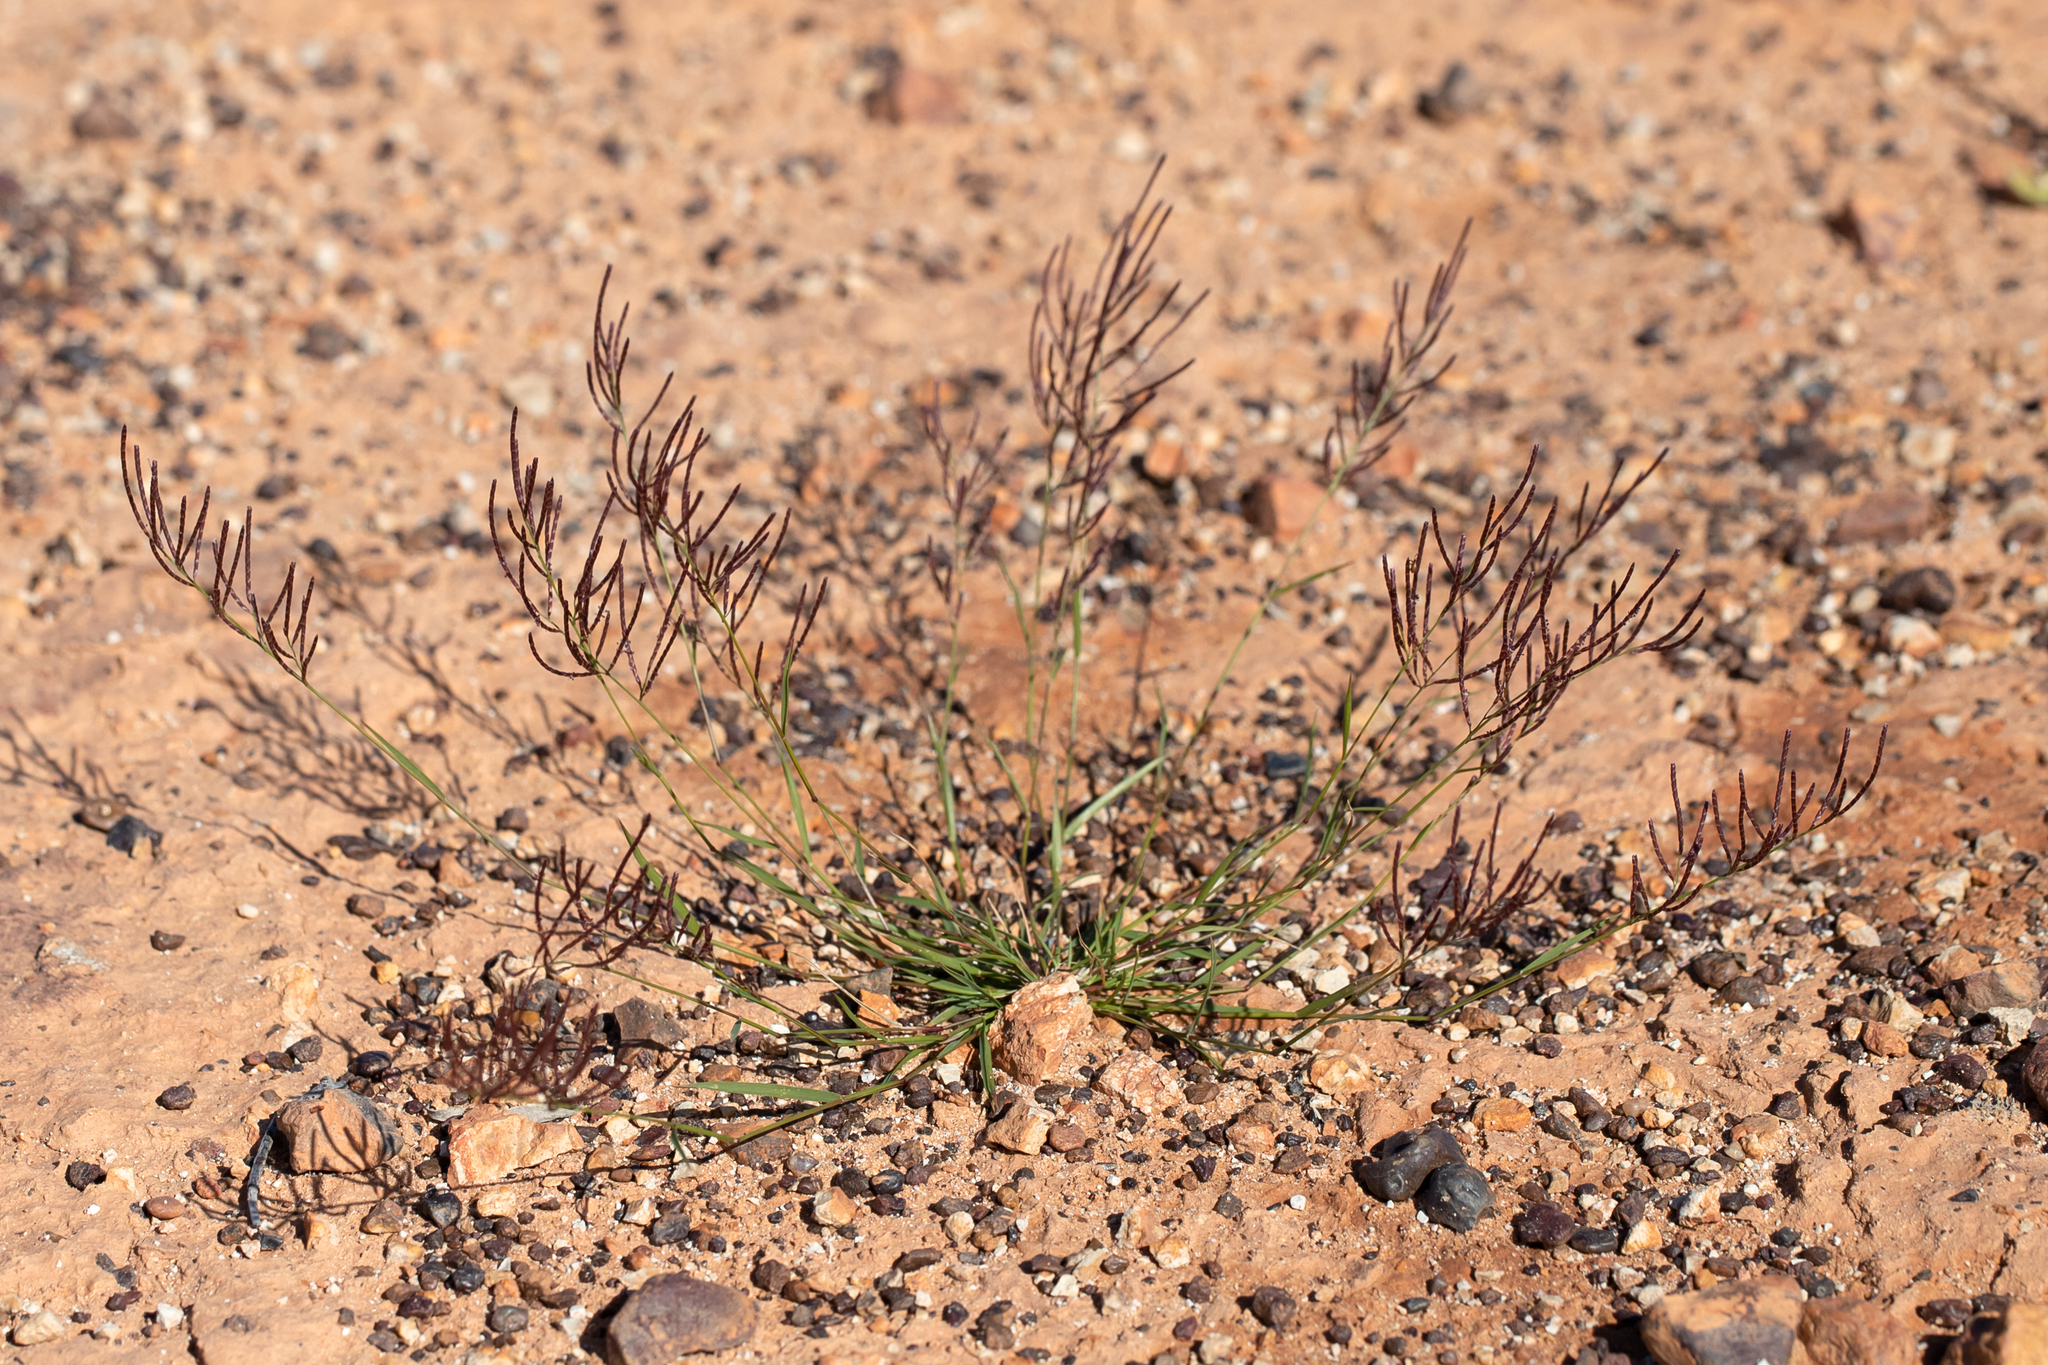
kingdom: Plantae
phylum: Tracheophyta
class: Liliopsida
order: Poales
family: Poaceae
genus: Eragrostis
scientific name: Eragrostis pergracilis
